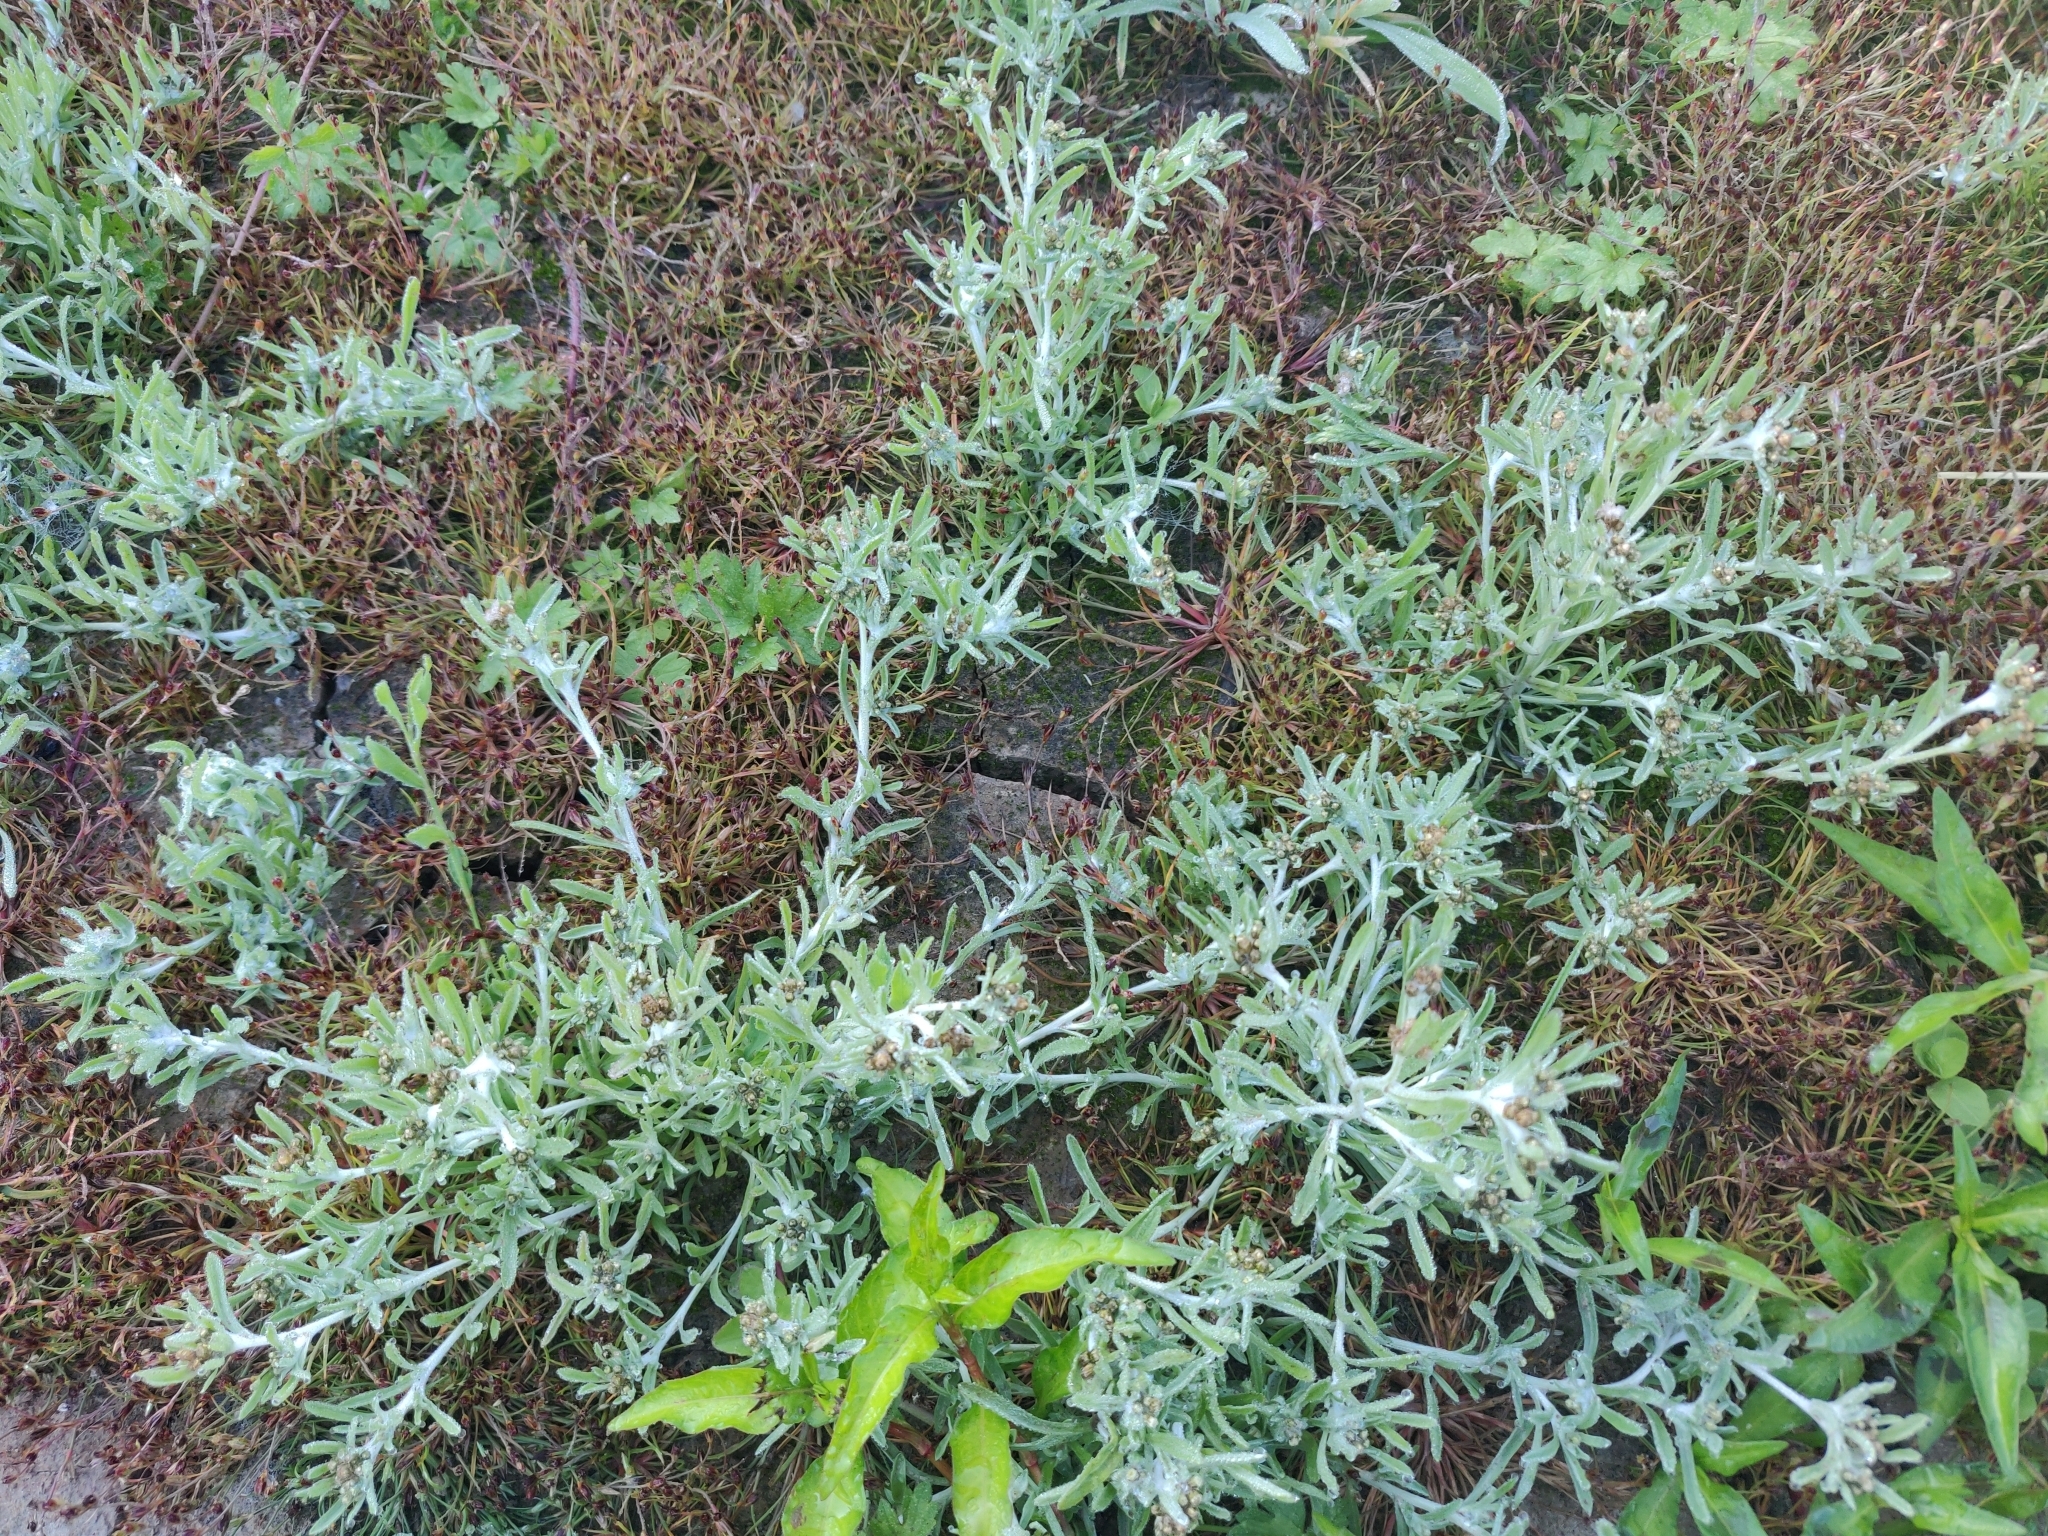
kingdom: Plantae
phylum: Tracheophyta
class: Magnoliopsida
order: Asterales
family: Asteraceae
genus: Gnaphalium
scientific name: Gnaphalium uliginosum
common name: Marsh cudweed
